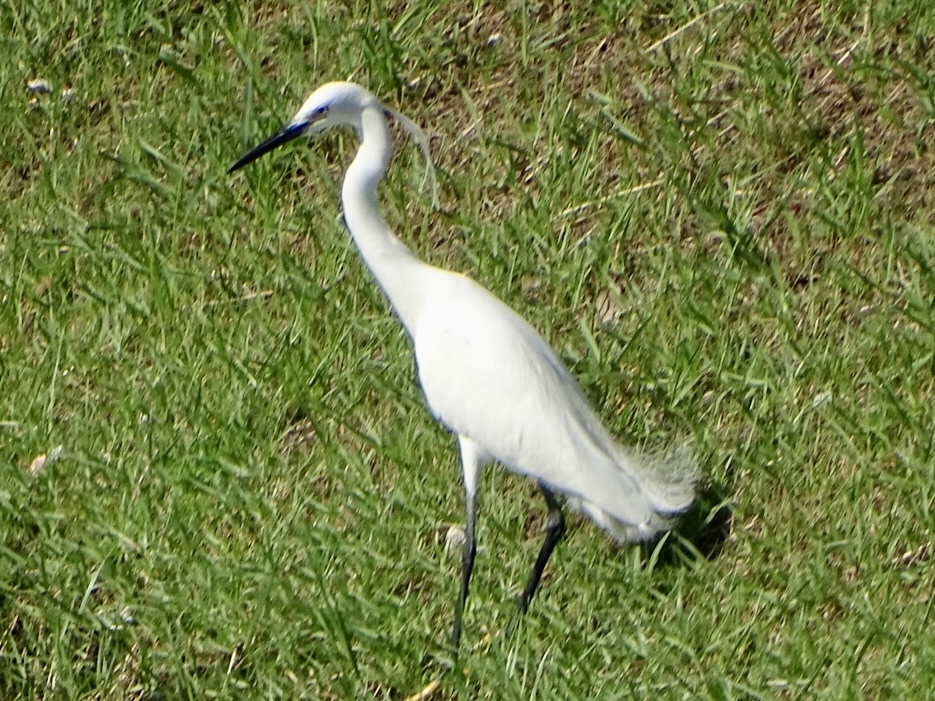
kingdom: Animalia
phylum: Chordata
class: Aves
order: Pelecaniformes
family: Ardeidae
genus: Egretta
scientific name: Egretta garzetta
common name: Little egret
